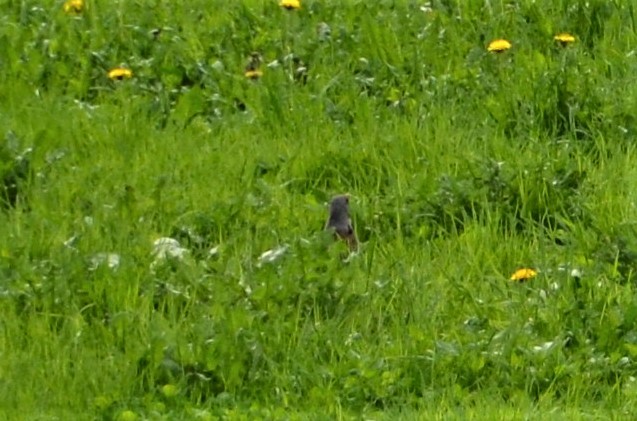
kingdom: Animalia
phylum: Chordata
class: Aves
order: Passeriformes
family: Turdidae
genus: Turdus
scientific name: Turdus pilaris
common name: Fieldfare
